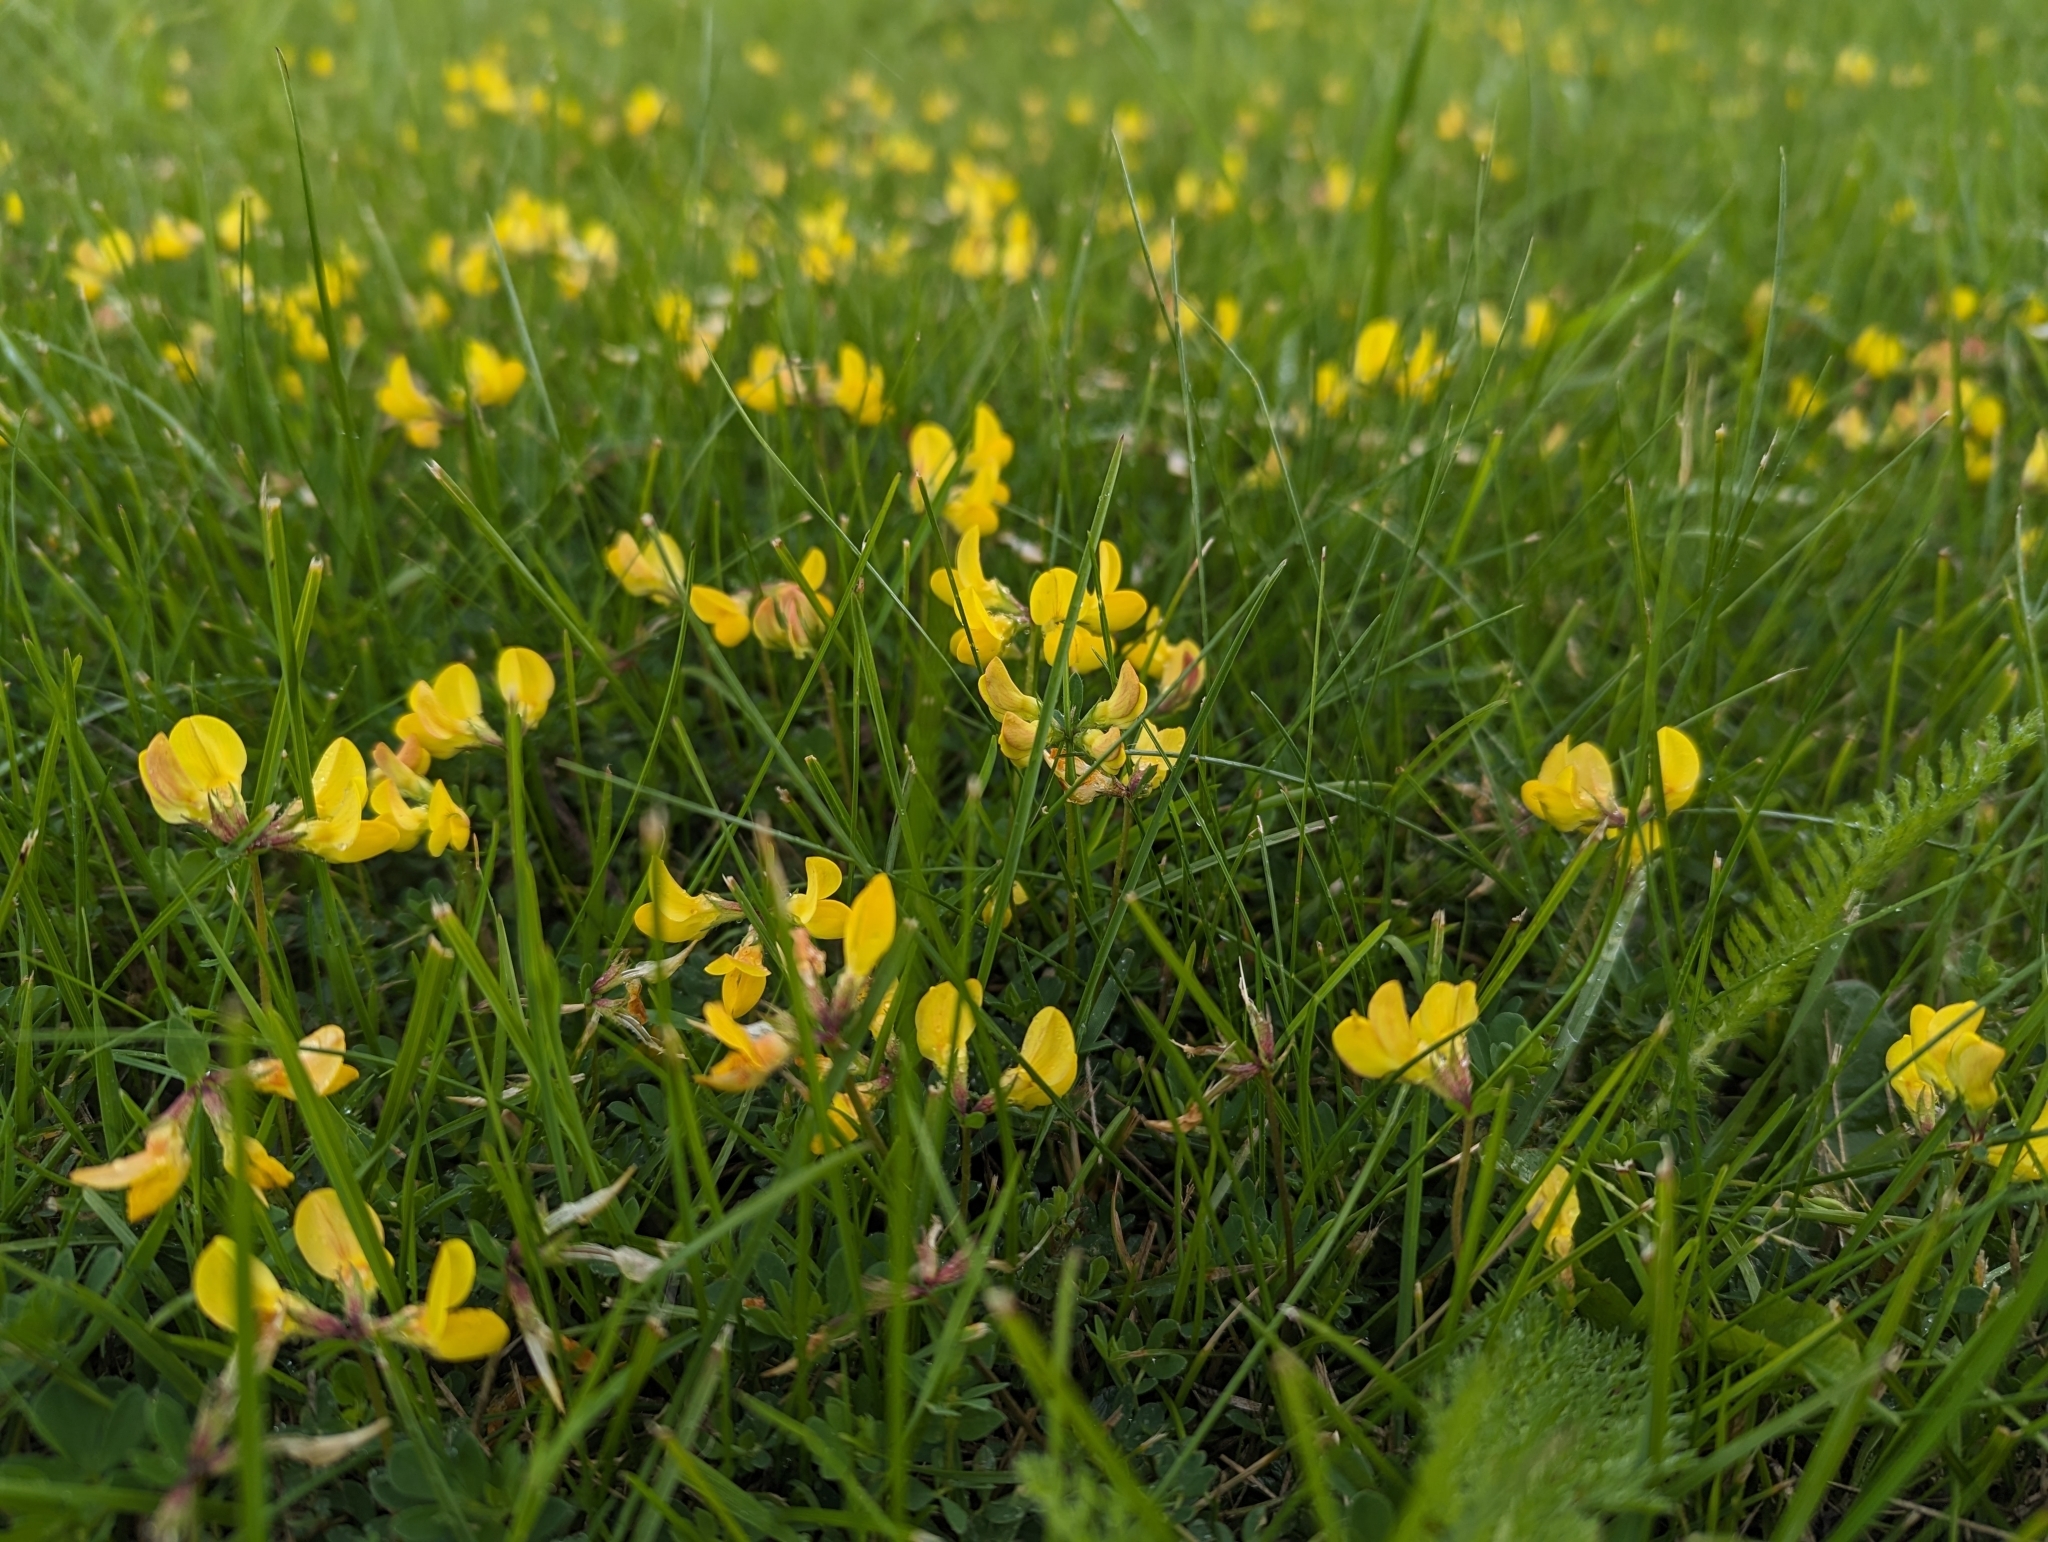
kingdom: Plantae
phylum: Tracheophyta
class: Magnoliopsida
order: Fabales
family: Fabaceae
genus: Lotus
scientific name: Lotus corniculatus
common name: Common bird's-foot-trefoil
